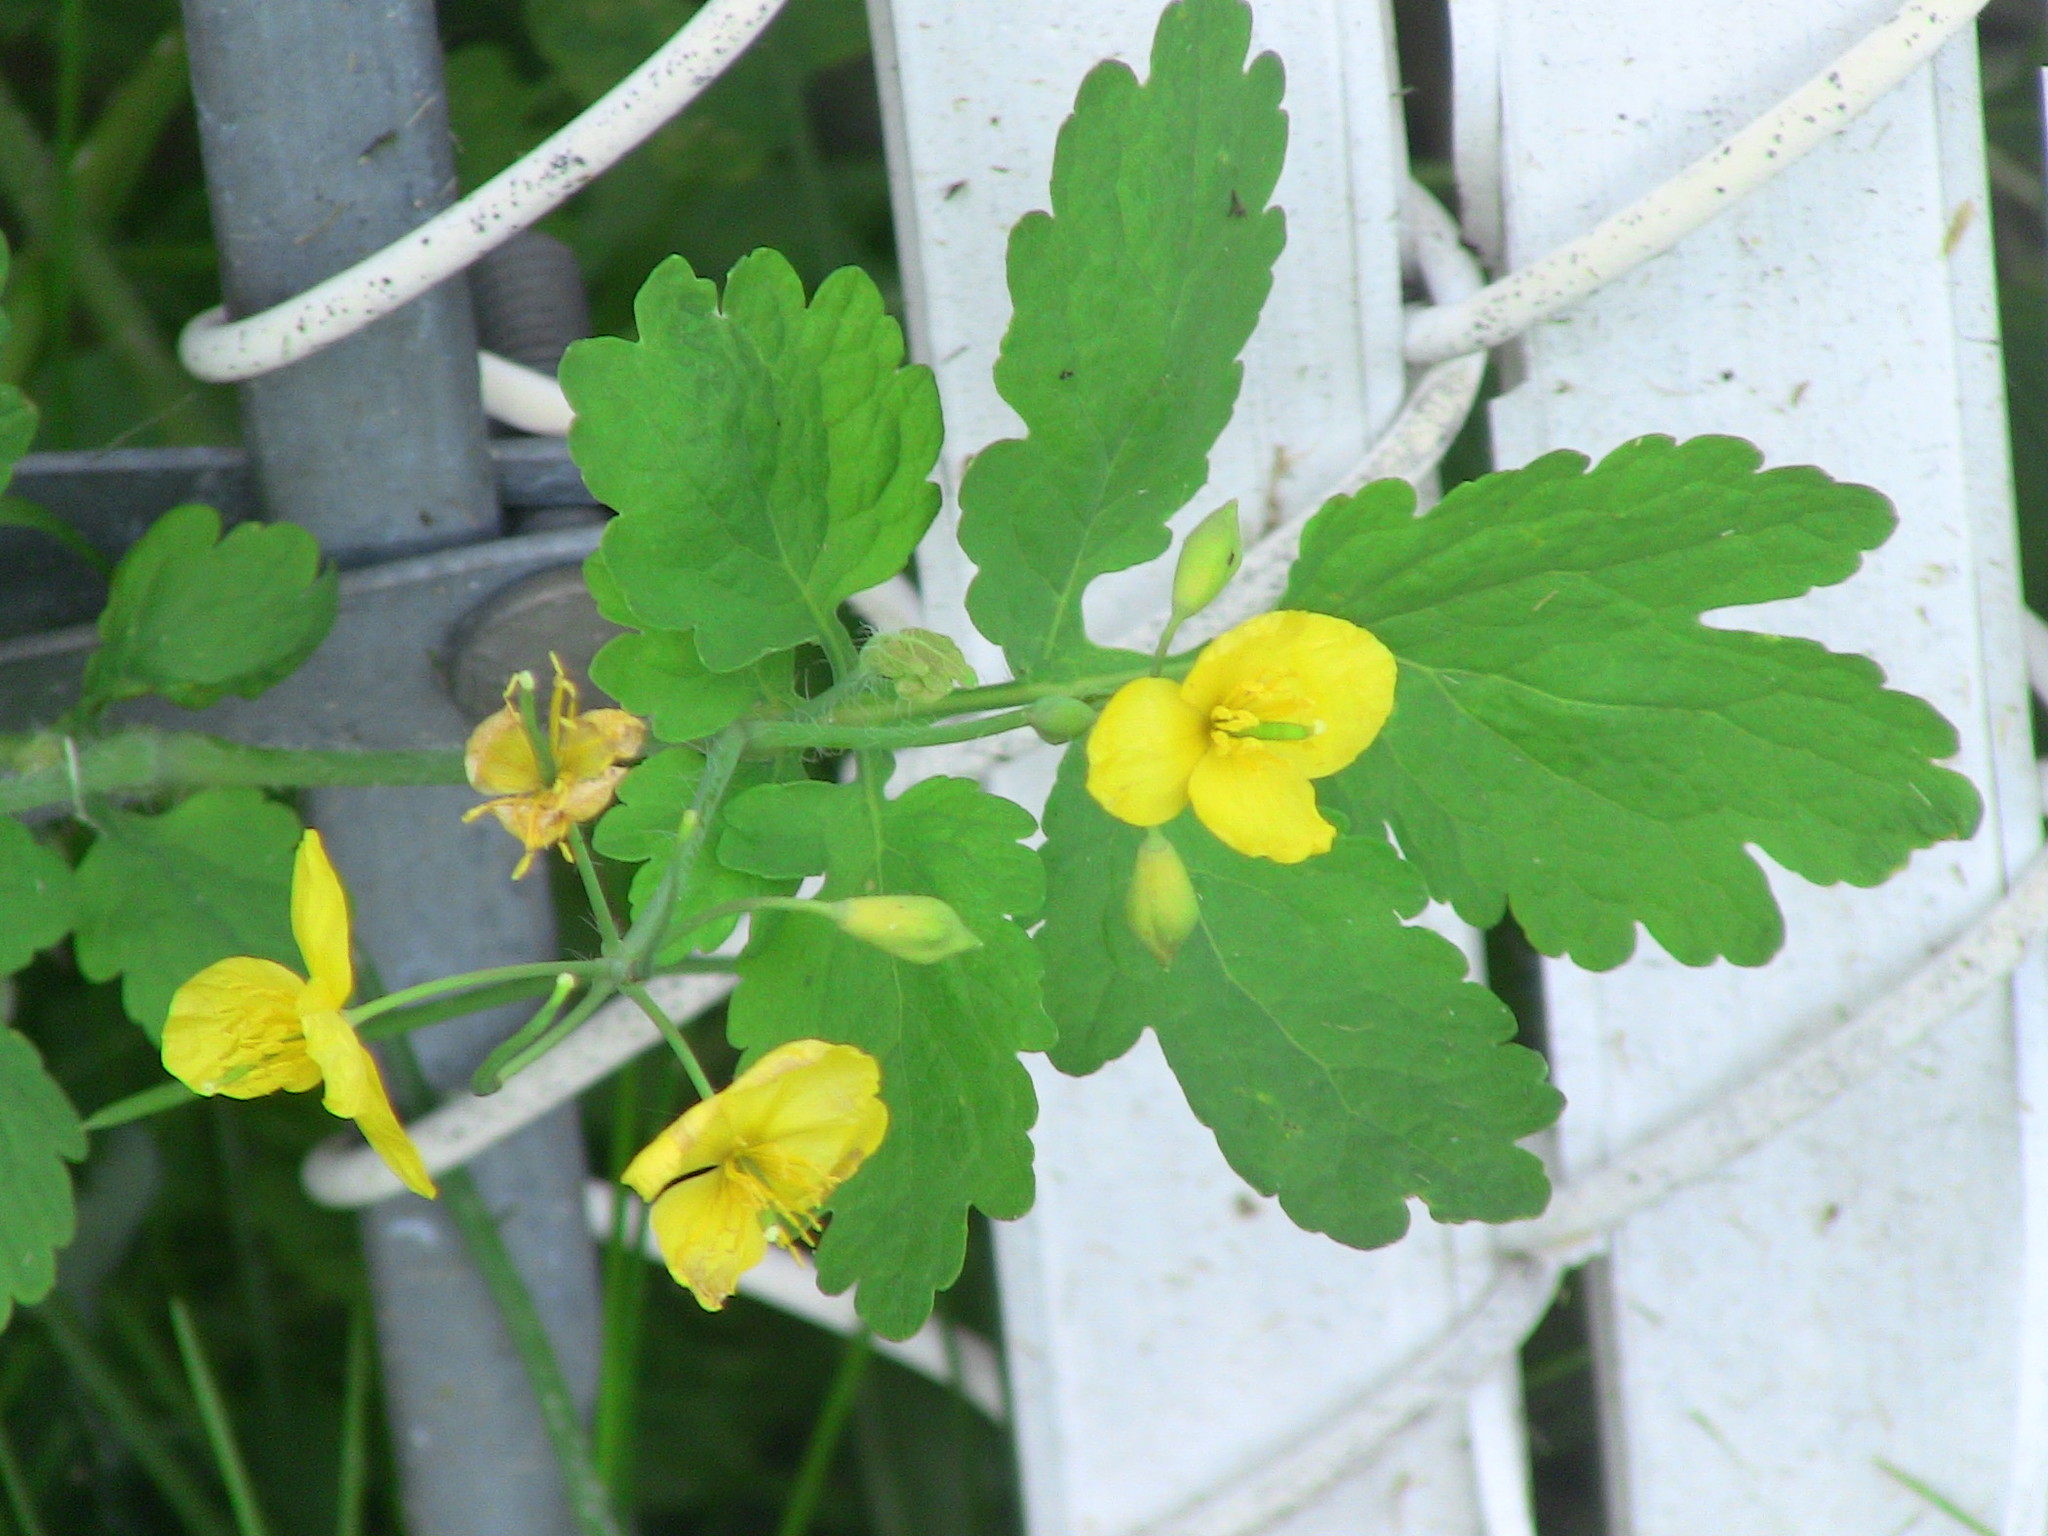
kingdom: Plantae
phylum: Tracheophyta
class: Magnoliopsida
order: Ranunculales
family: Papaveraceae
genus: Chelidonium
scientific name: Chelidonium majus
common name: Greater celandine
